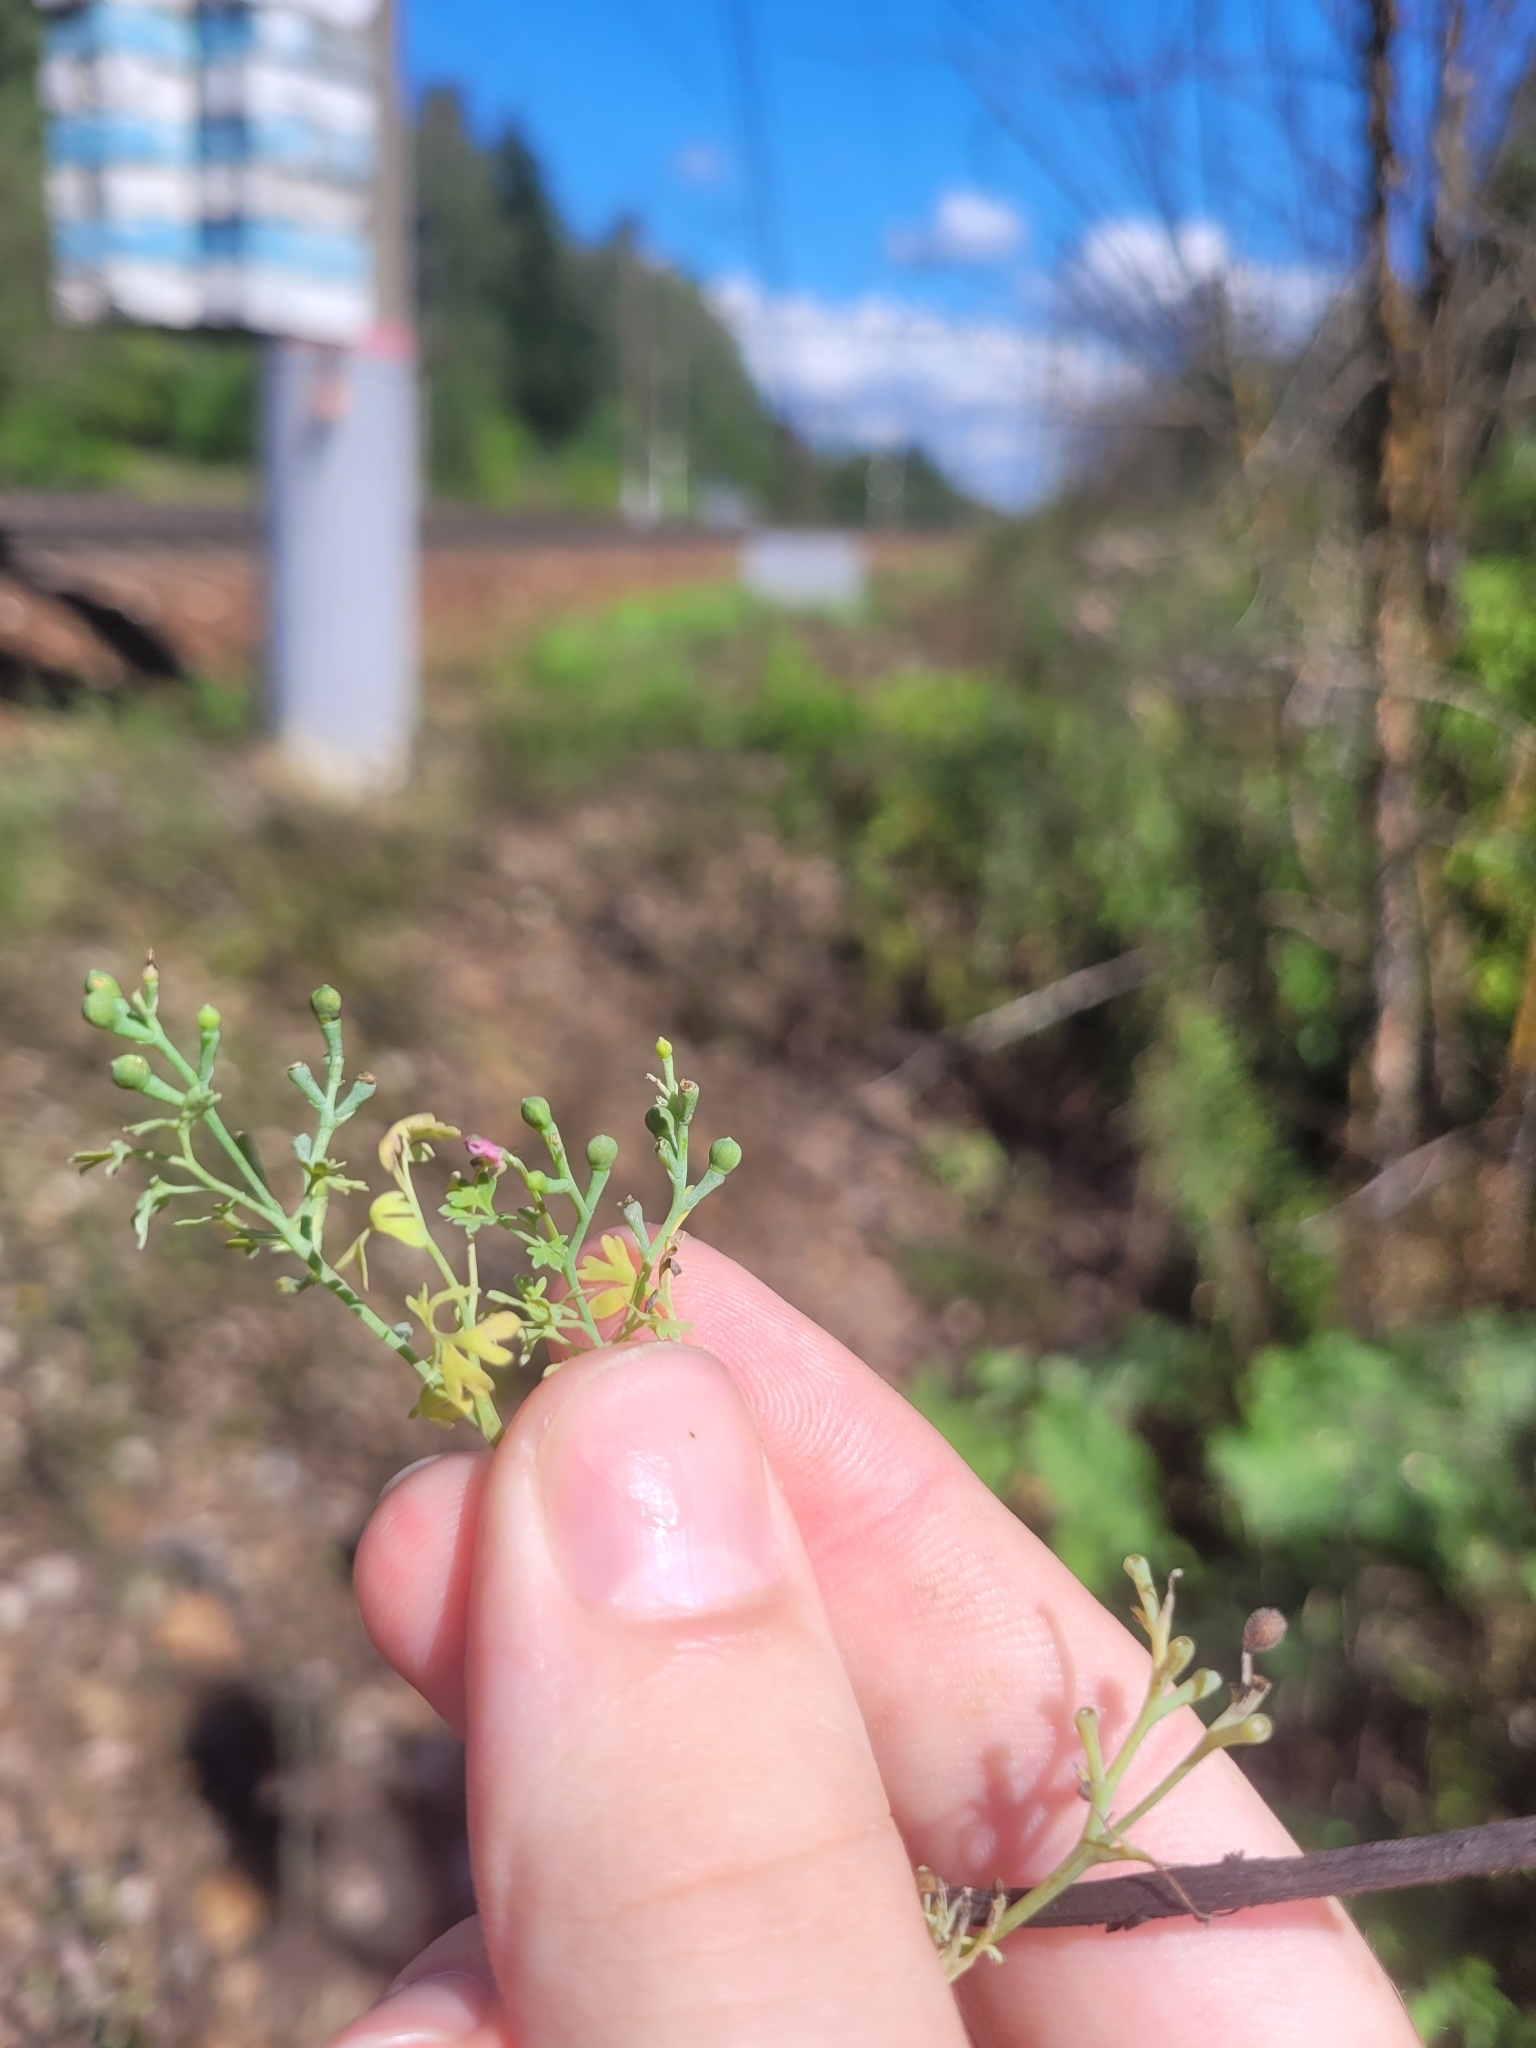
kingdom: Plantae
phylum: Tracheophyta
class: Magnoliopsida
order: Ranunculales
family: Papaveraceae
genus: Fumaria
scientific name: Fumaria schleicheri
